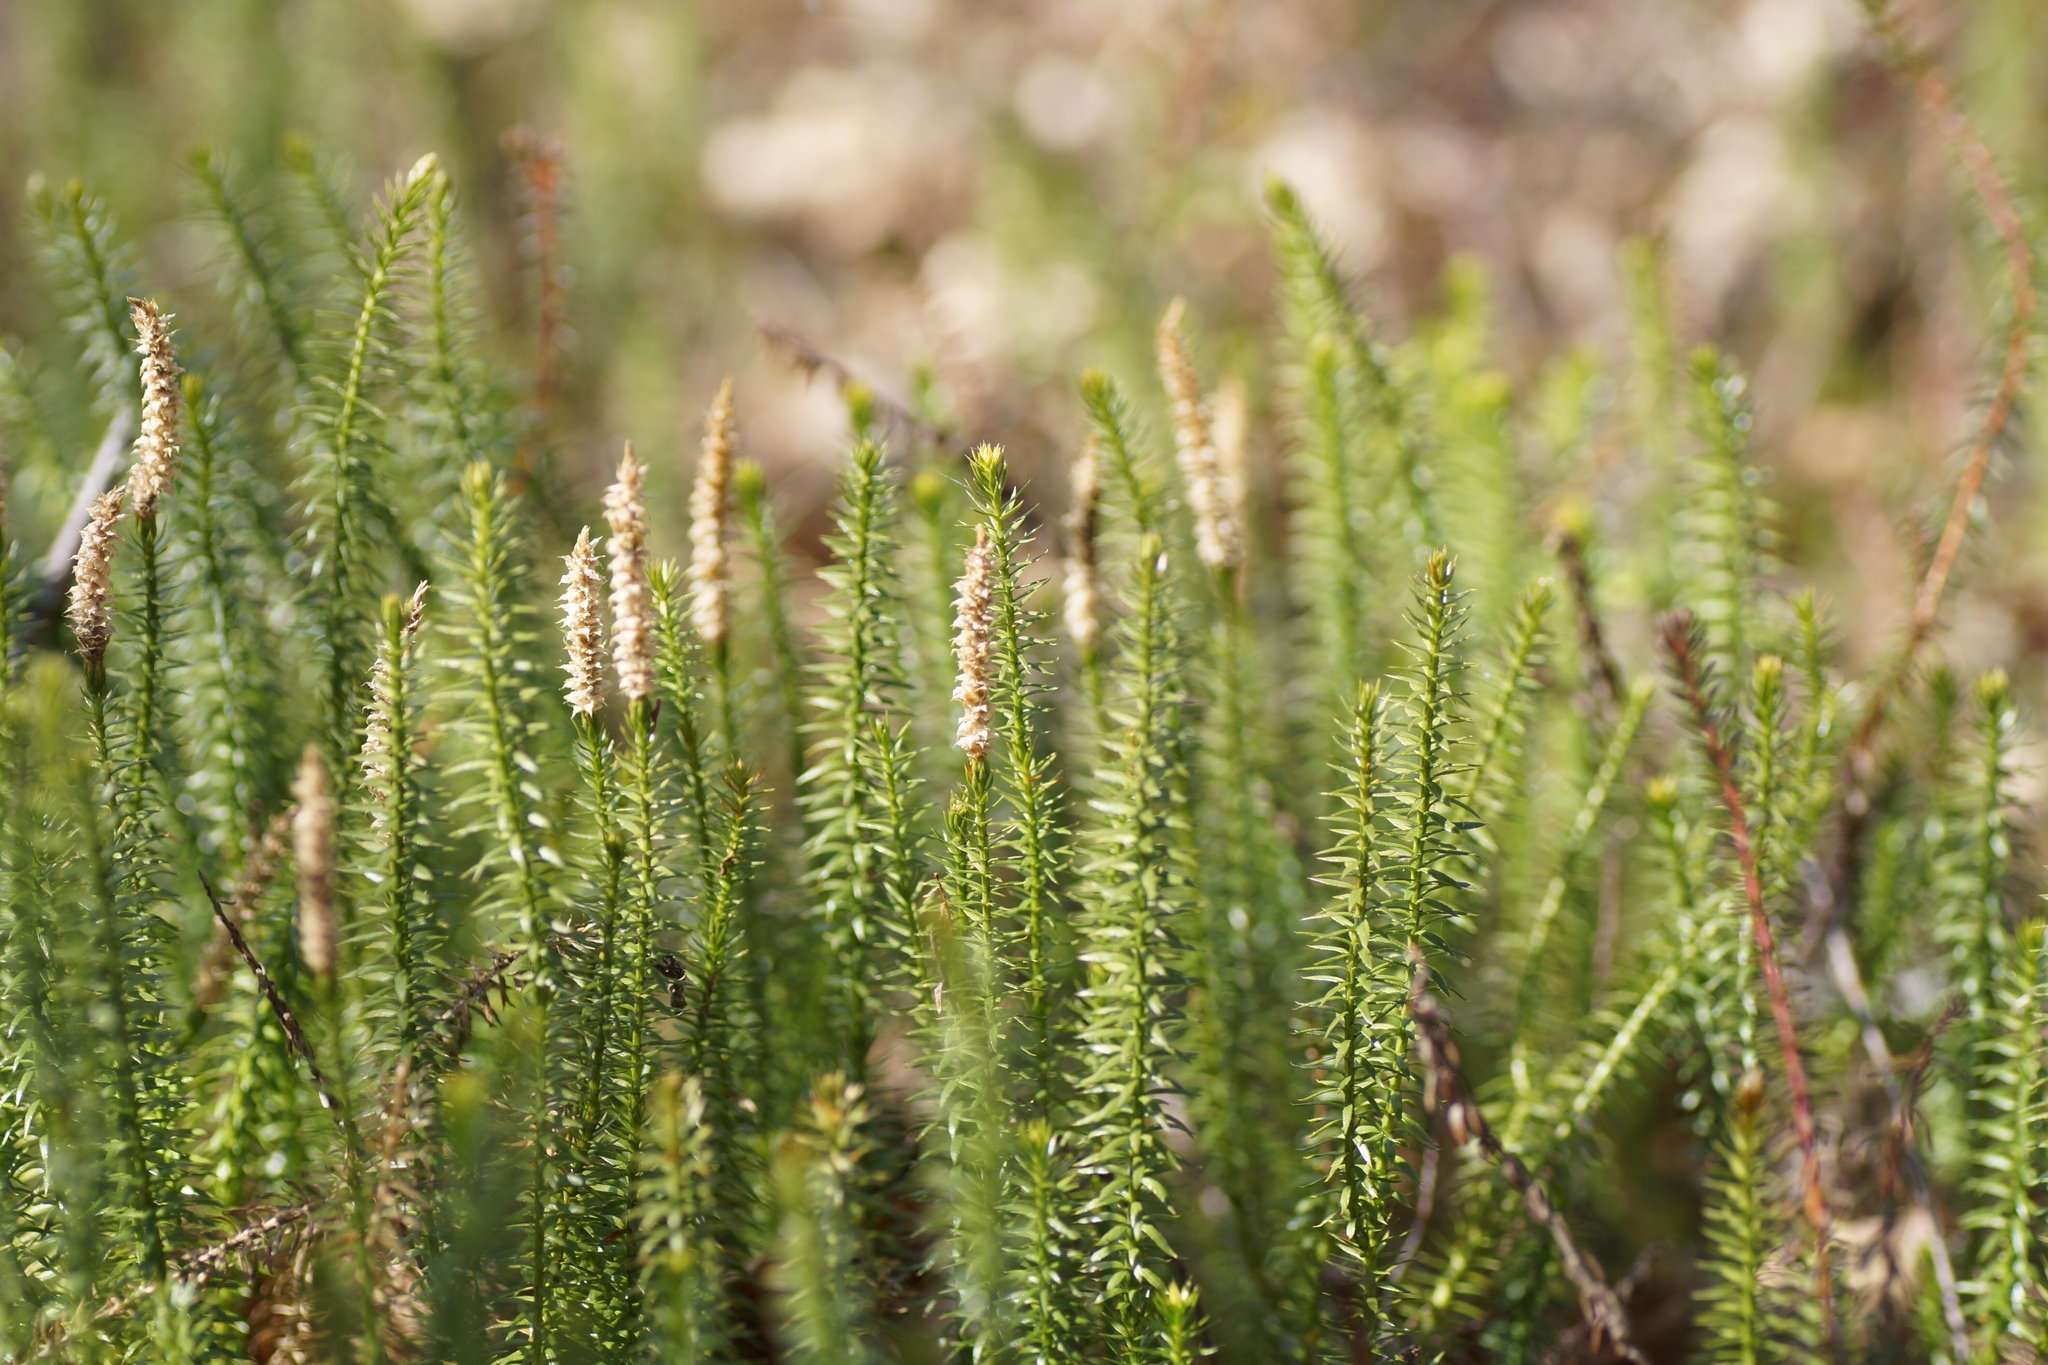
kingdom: Plantae
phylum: Tracheophyta
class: Lycopodiopsida
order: Lycopodiales
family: Lycopodiaceae
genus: Spinulum
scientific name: Spinulum annotinum
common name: Interrupted club-moss
